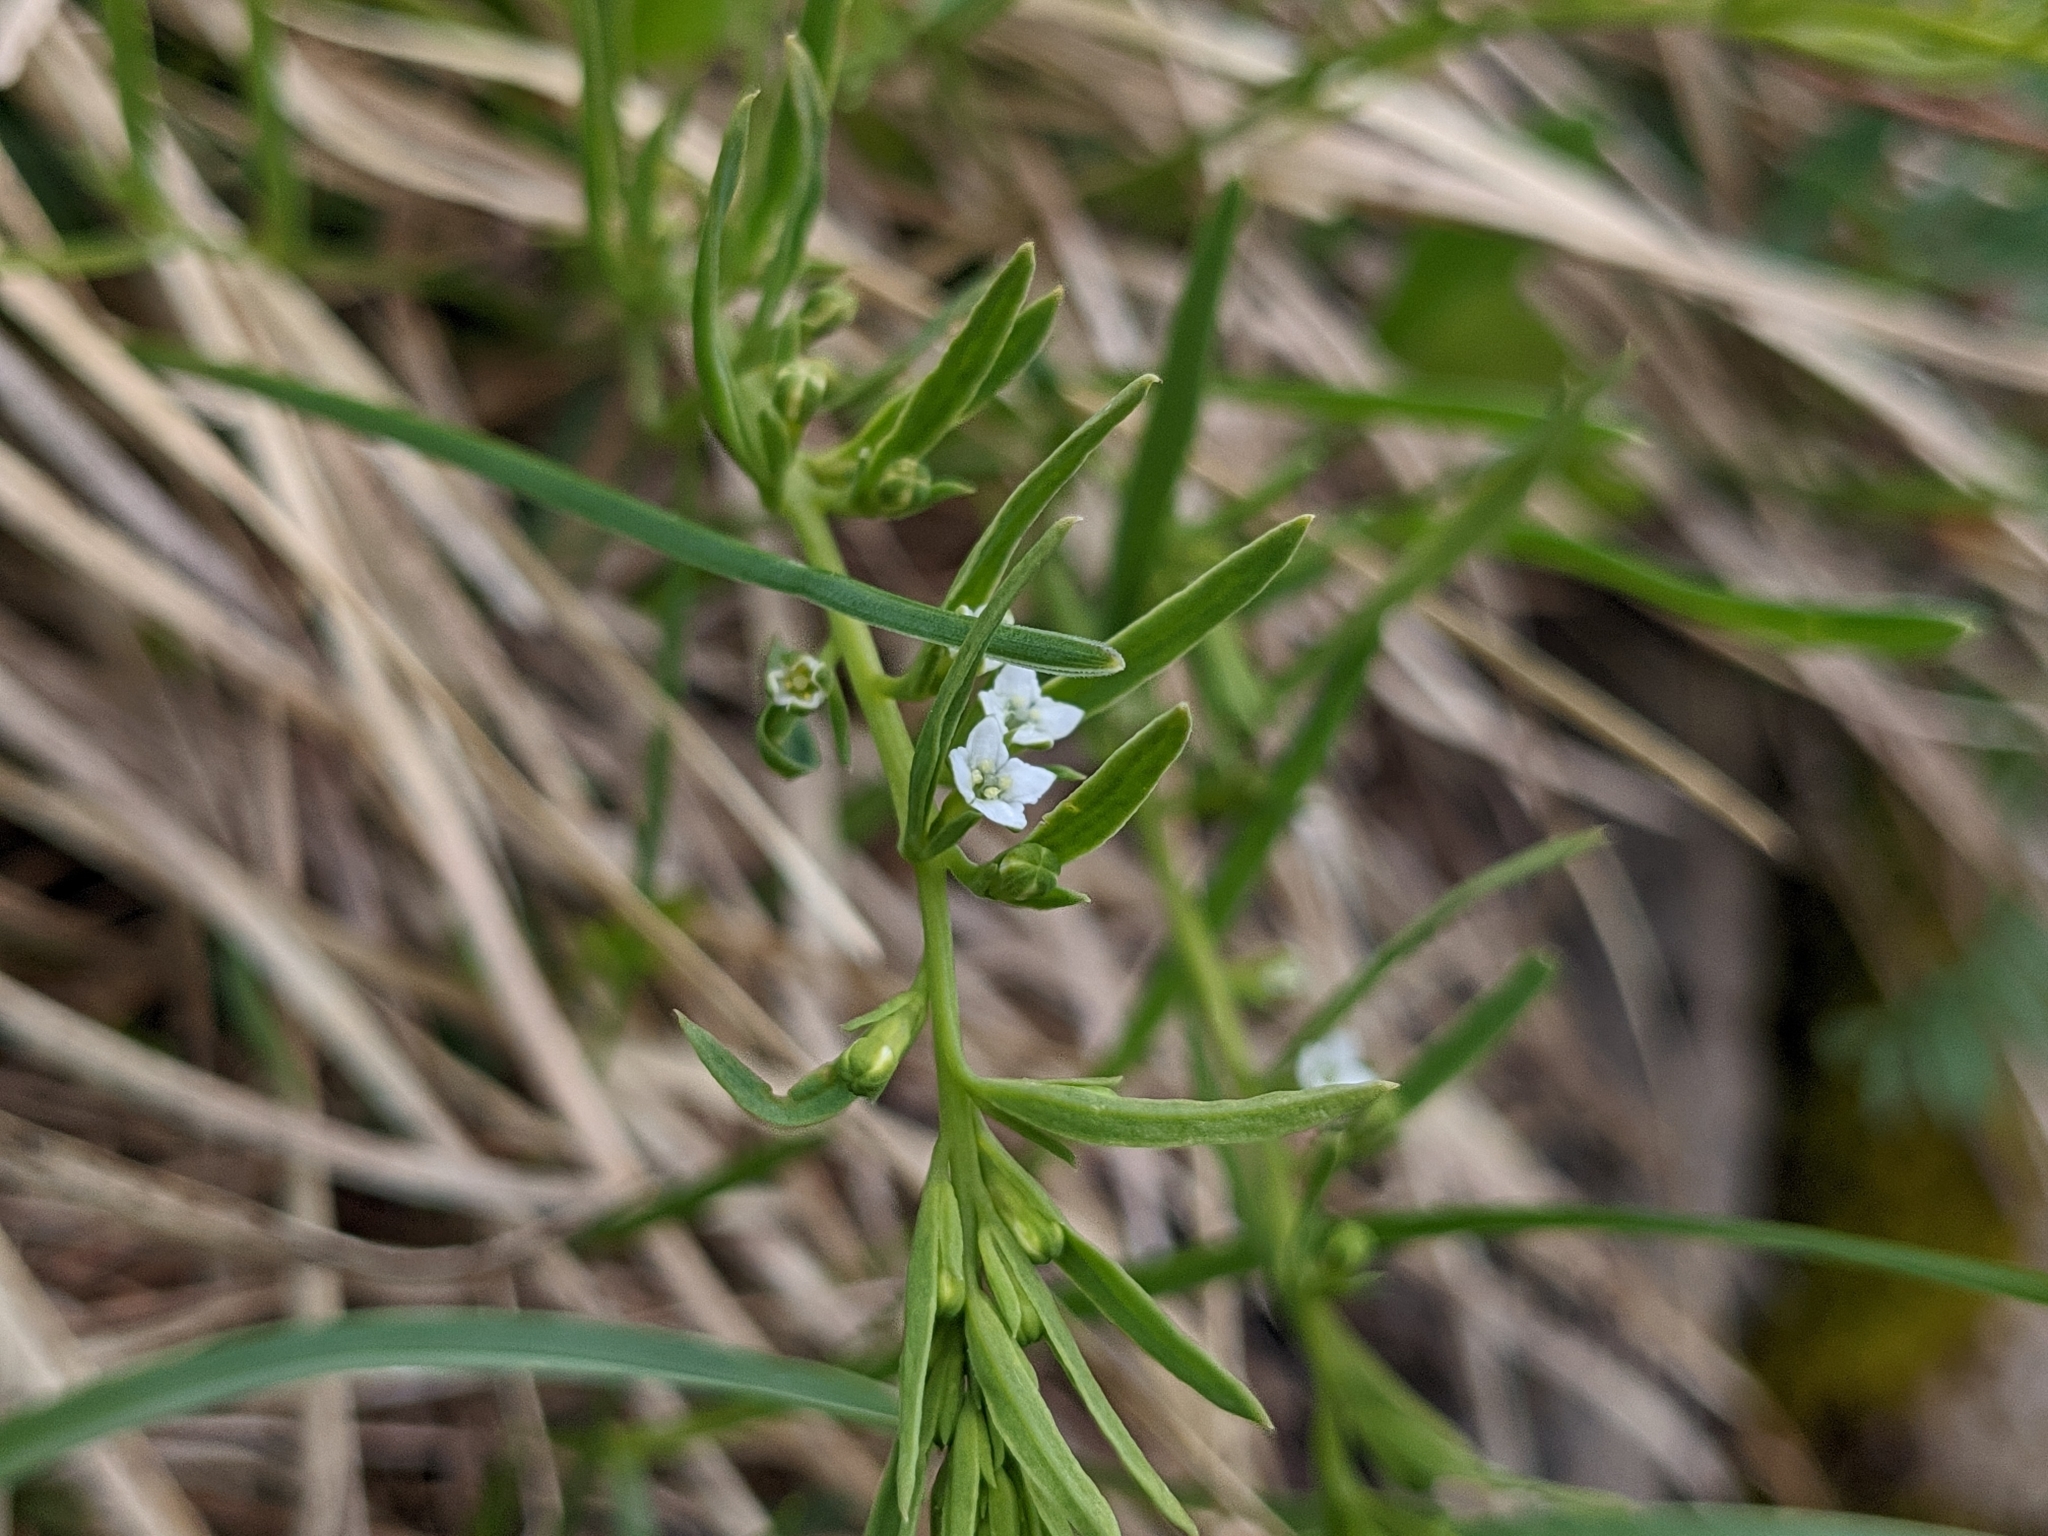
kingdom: Plantae
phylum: Tracheophyta
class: Magnoliopsida
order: Santalales
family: Thesiaceae
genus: Thesium
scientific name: Thesium alpinum
